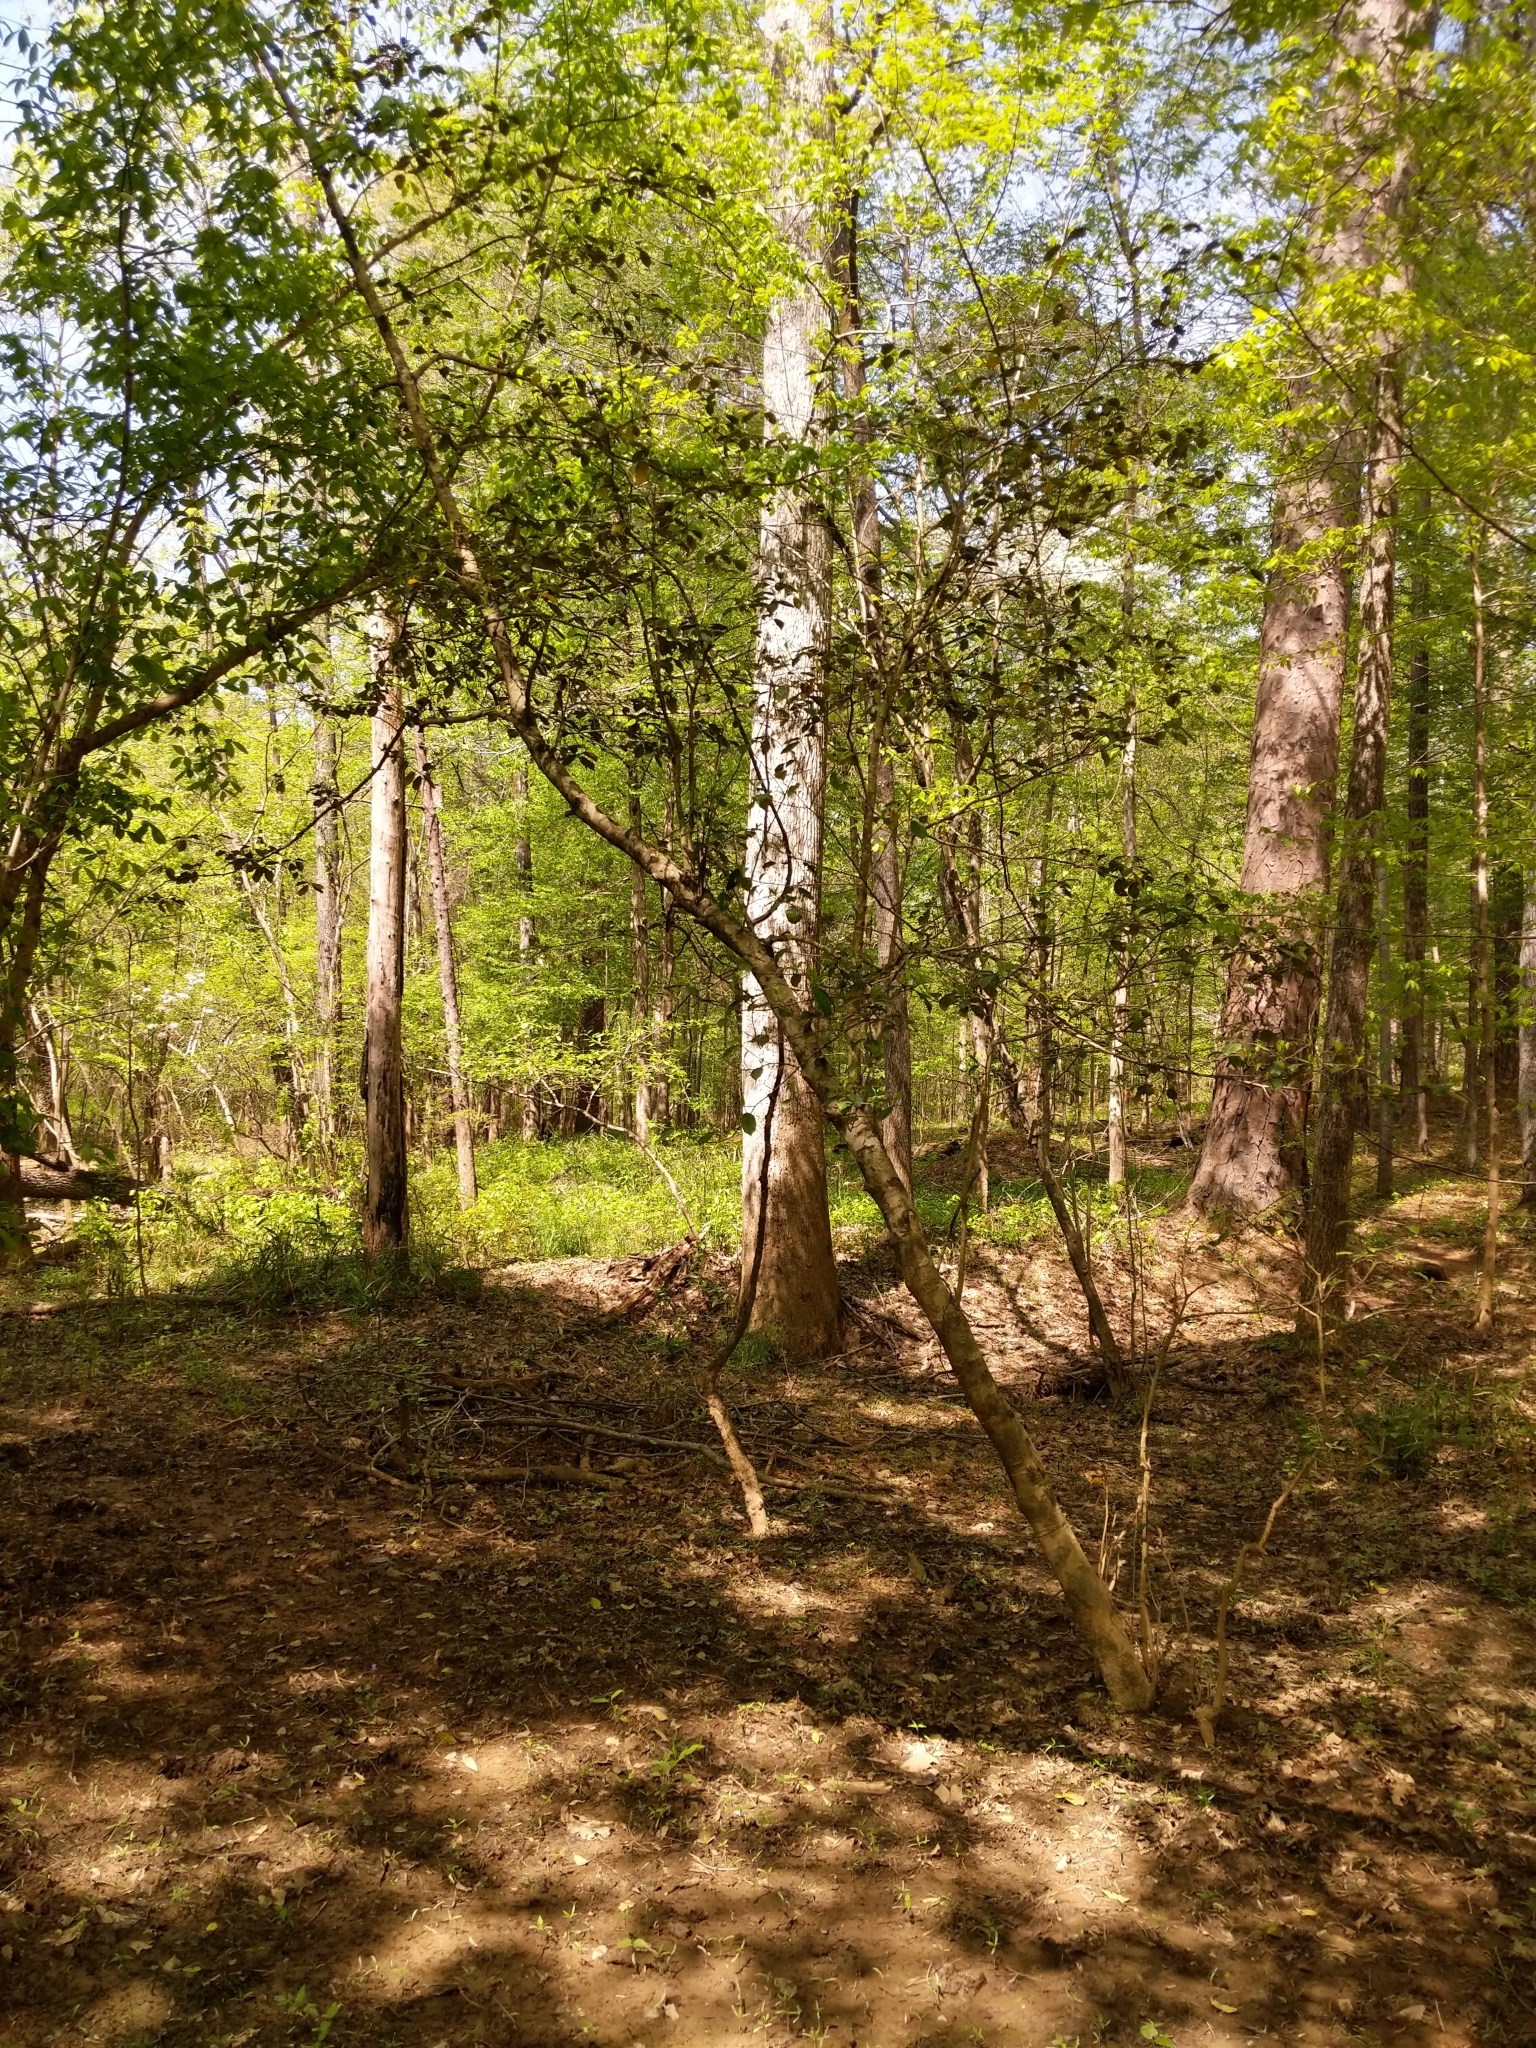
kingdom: Plantae
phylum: Tracheophyta
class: Magnoliopsida
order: Aquifoliales
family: Aquifoliaceae
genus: Ilex
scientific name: Ilex opaca
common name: American holly
